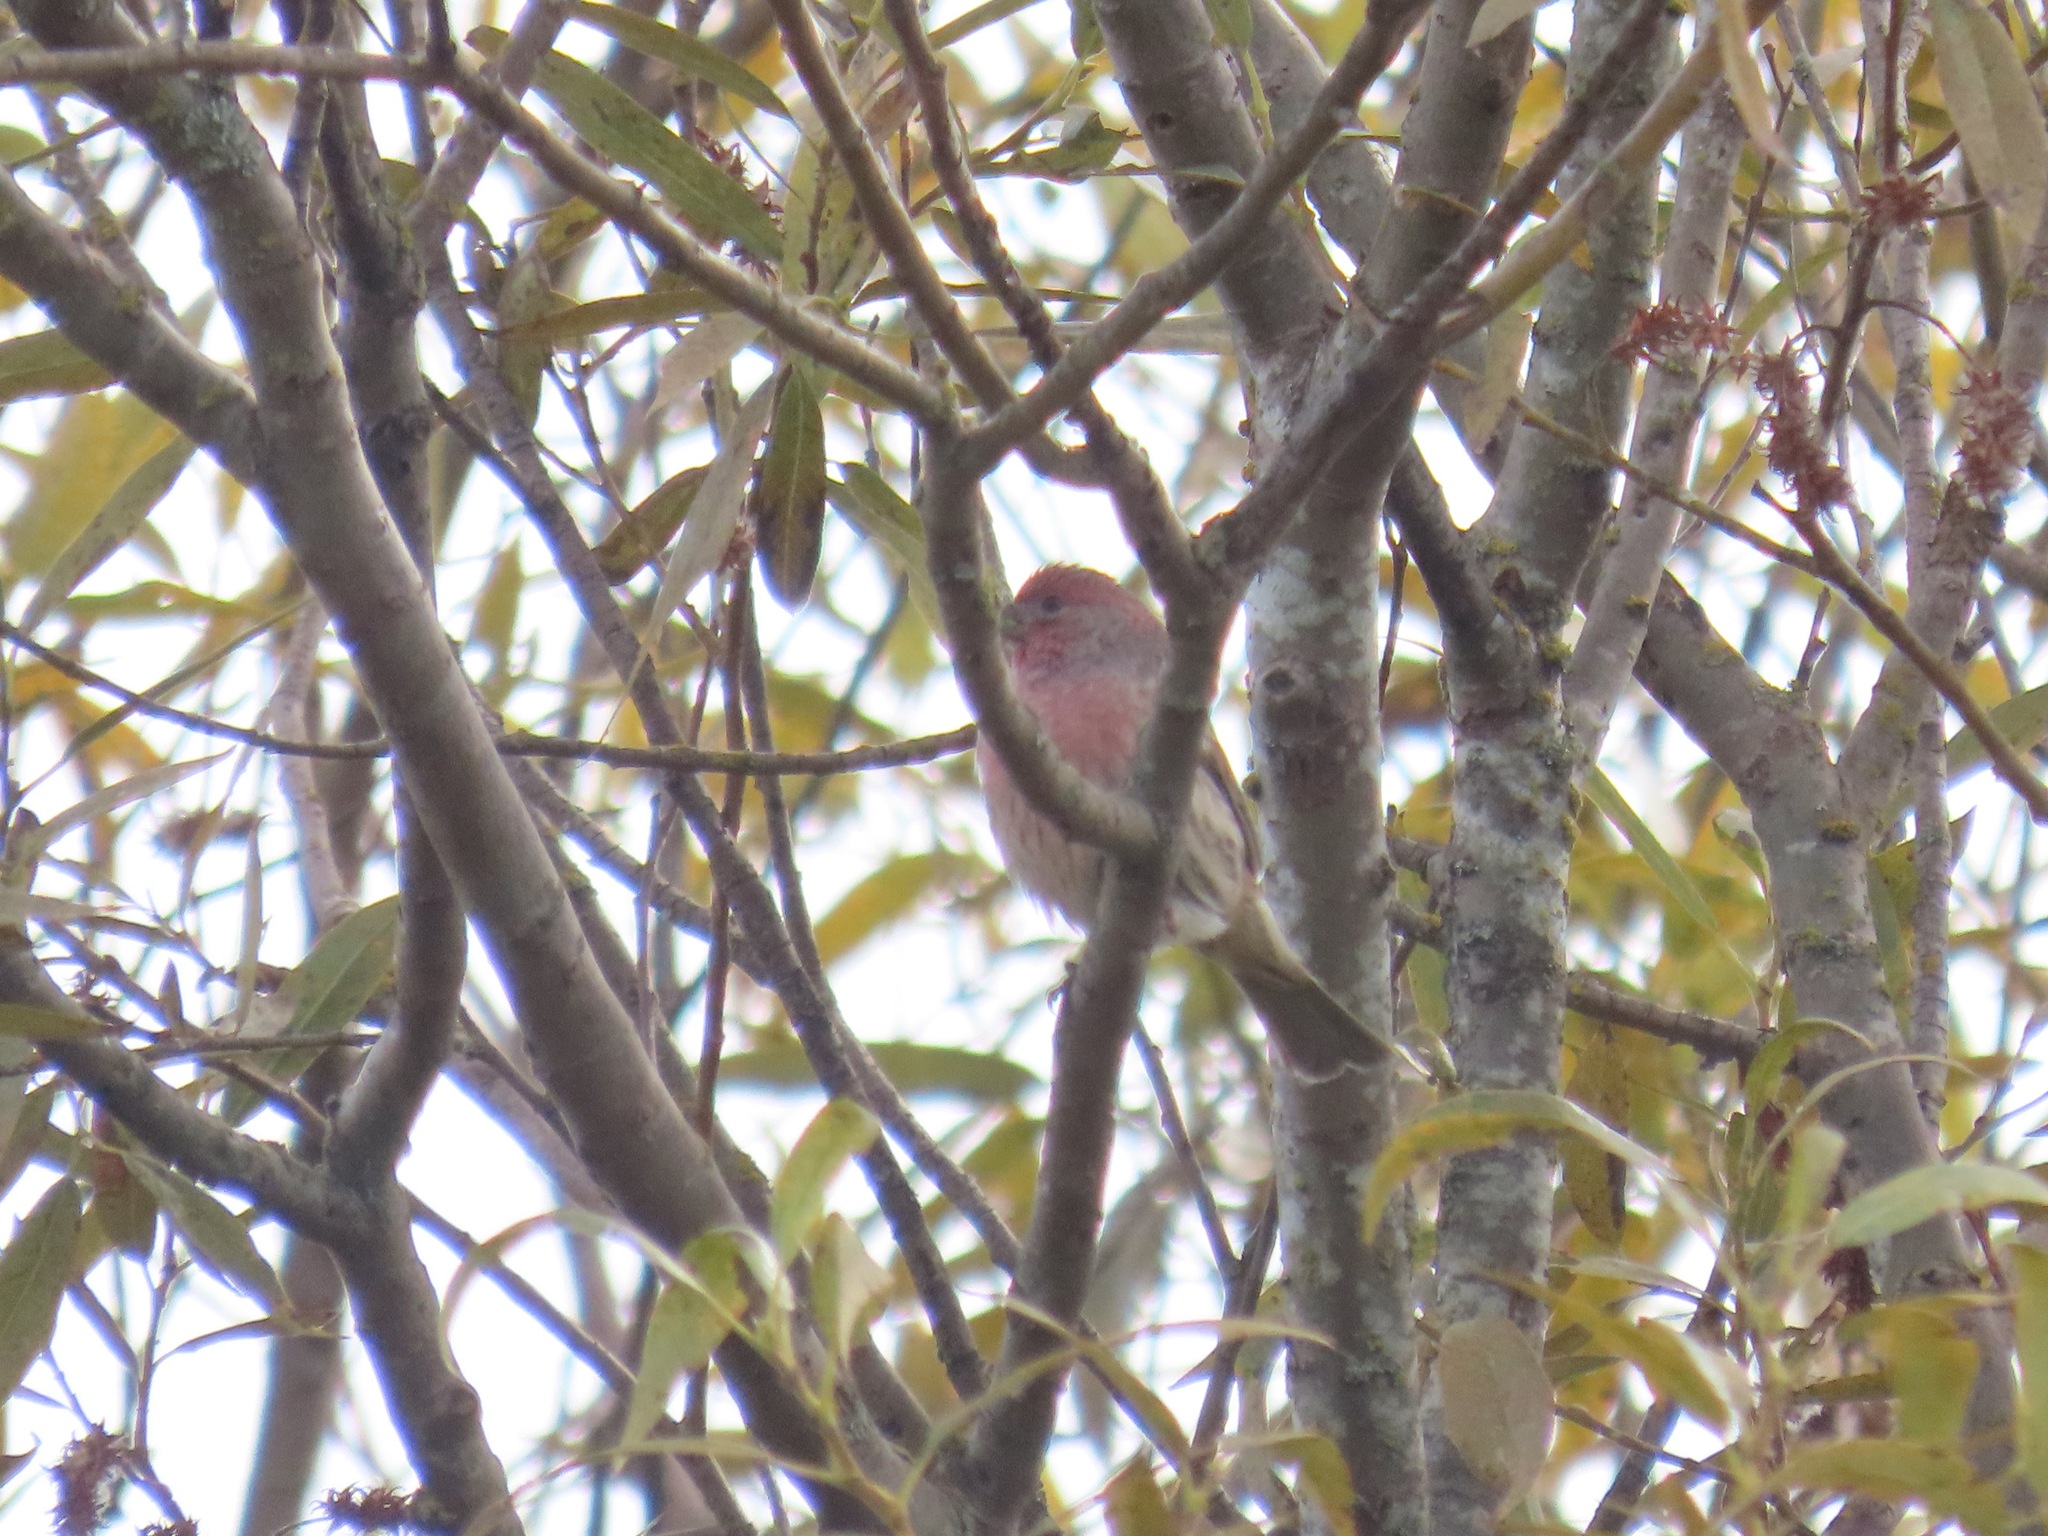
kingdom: Animalia
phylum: Chordata
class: Aves
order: Passeriformes
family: Fringillidae
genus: Haemorhous
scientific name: Haemorhous mexicanus
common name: House finch
